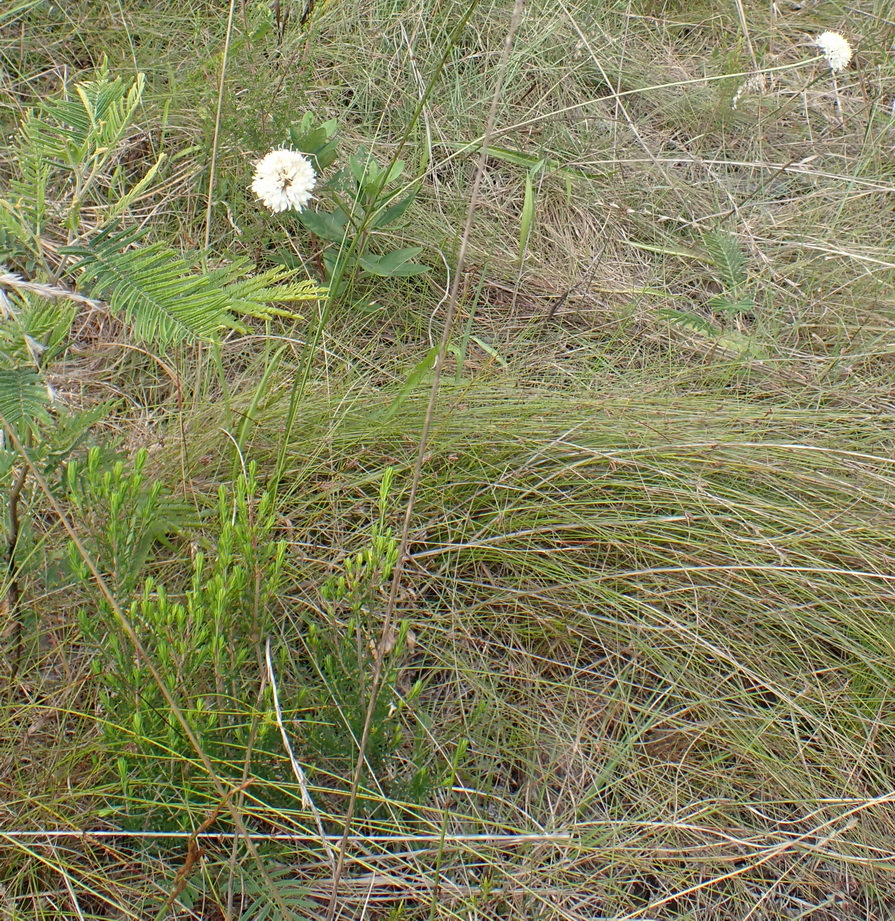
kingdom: Plantae
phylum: Tracheophyta
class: Magnoliopsida
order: Dipsacales
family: Caprifoliaceae
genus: Cephalaria
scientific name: Cephalaria humilis
